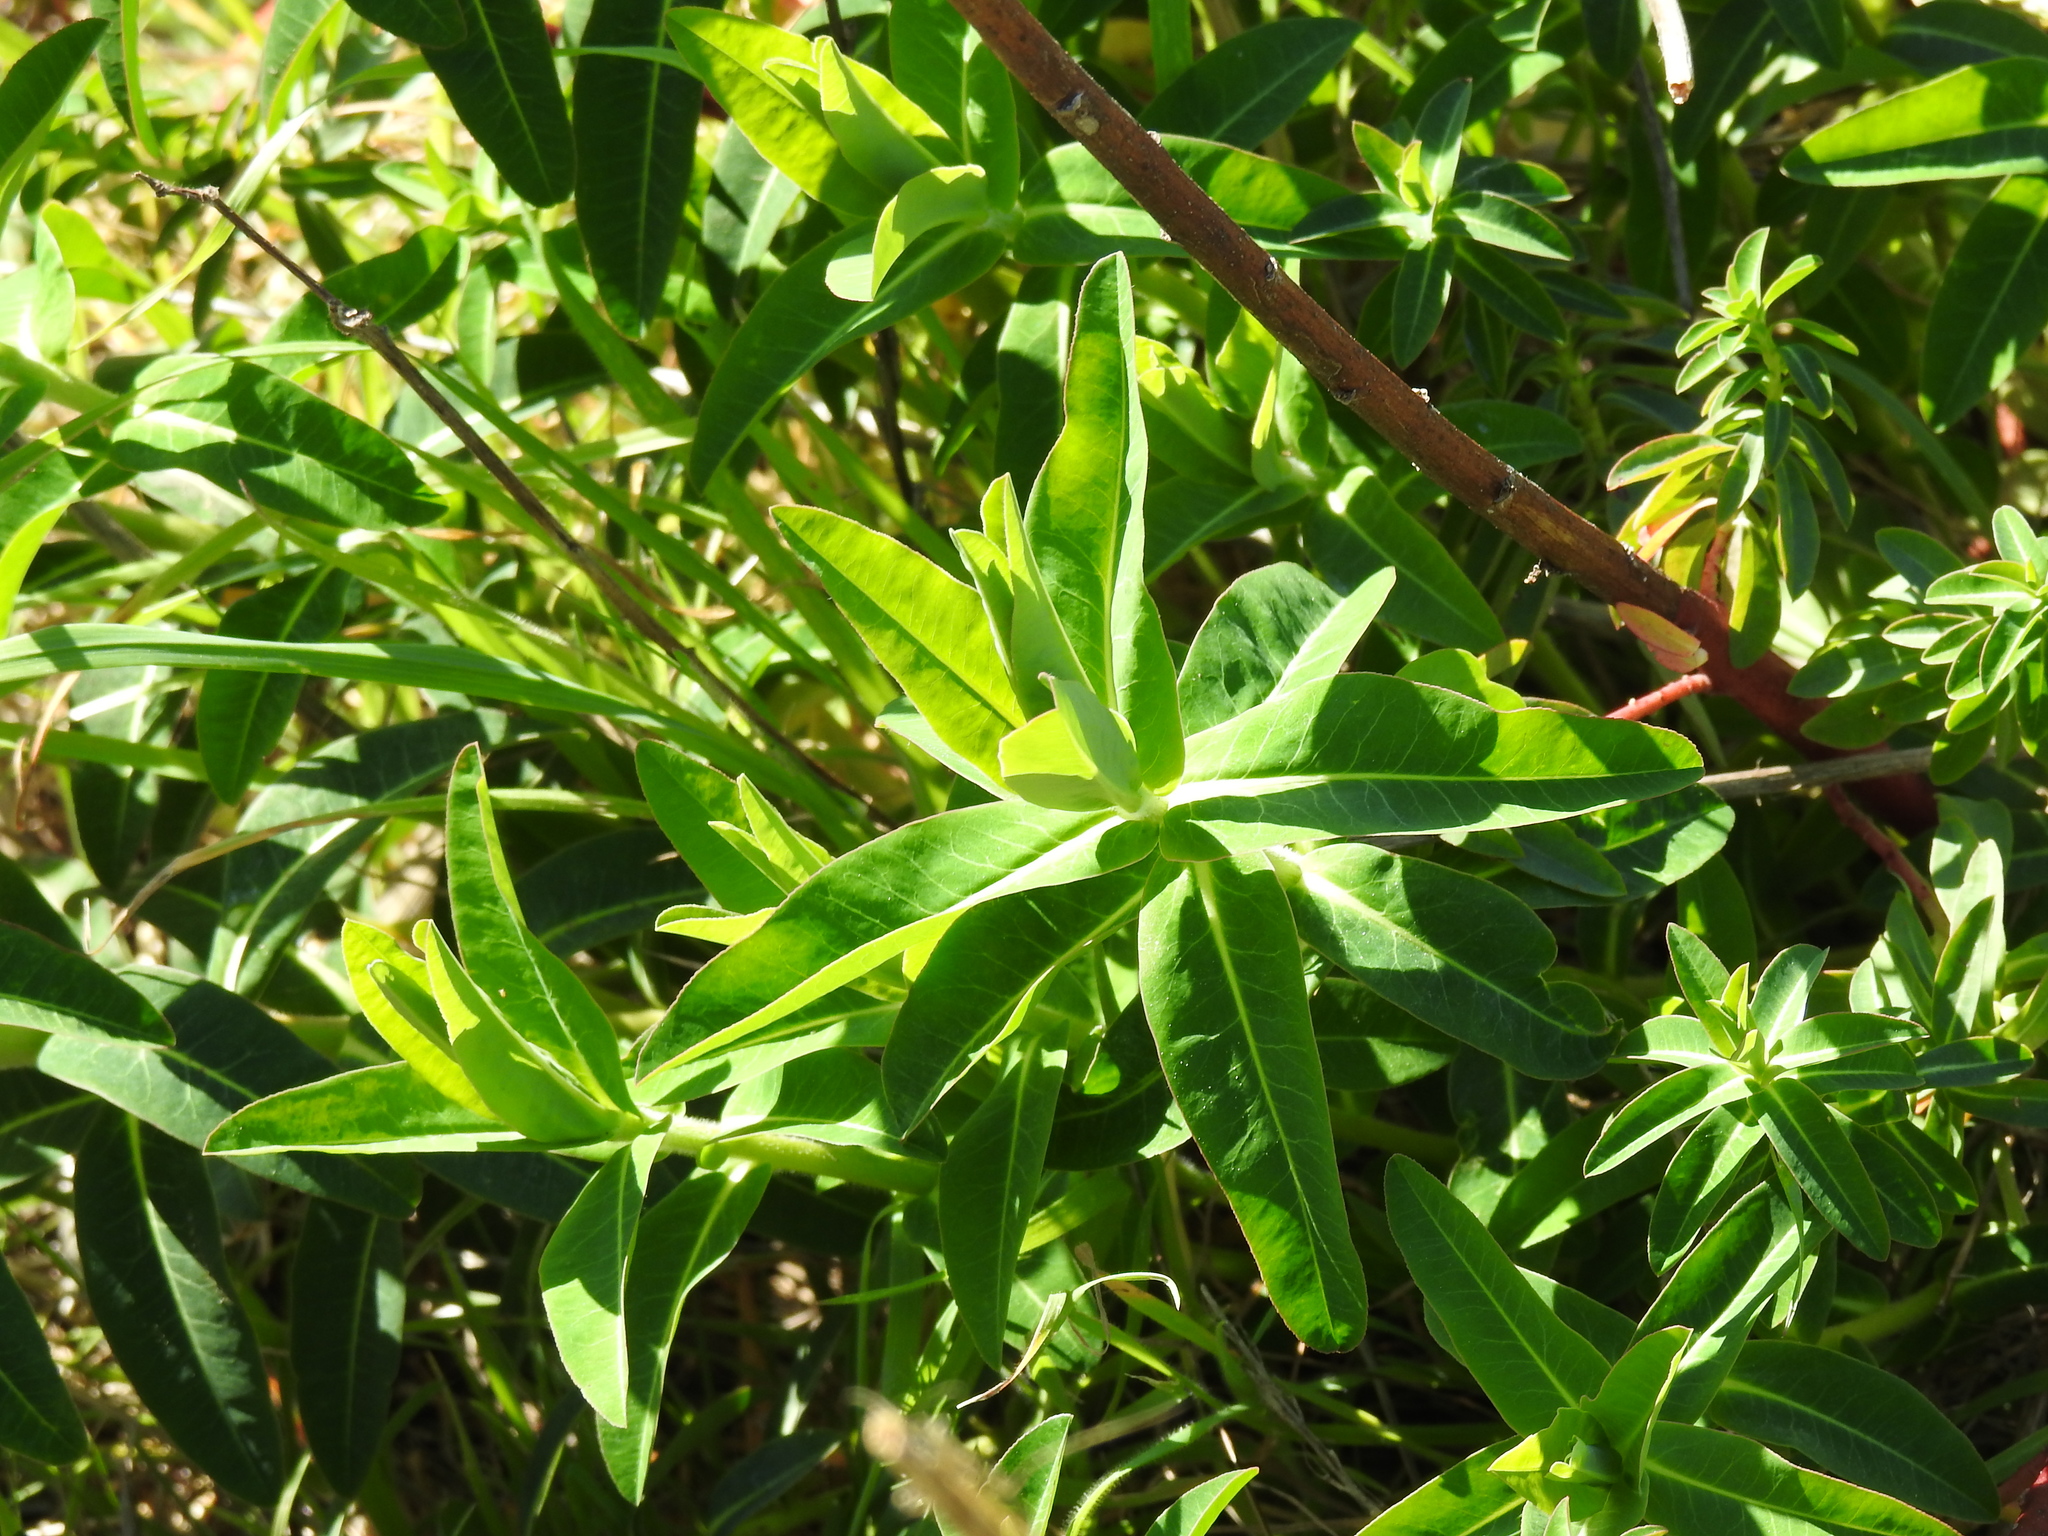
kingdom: Plantae
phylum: Tracheophyta
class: Magnoliopsida
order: Malpighiales
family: Euphorbiaceae
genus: Euphorbia
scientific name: Euphorbia oblongata
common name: Balkan spurge
